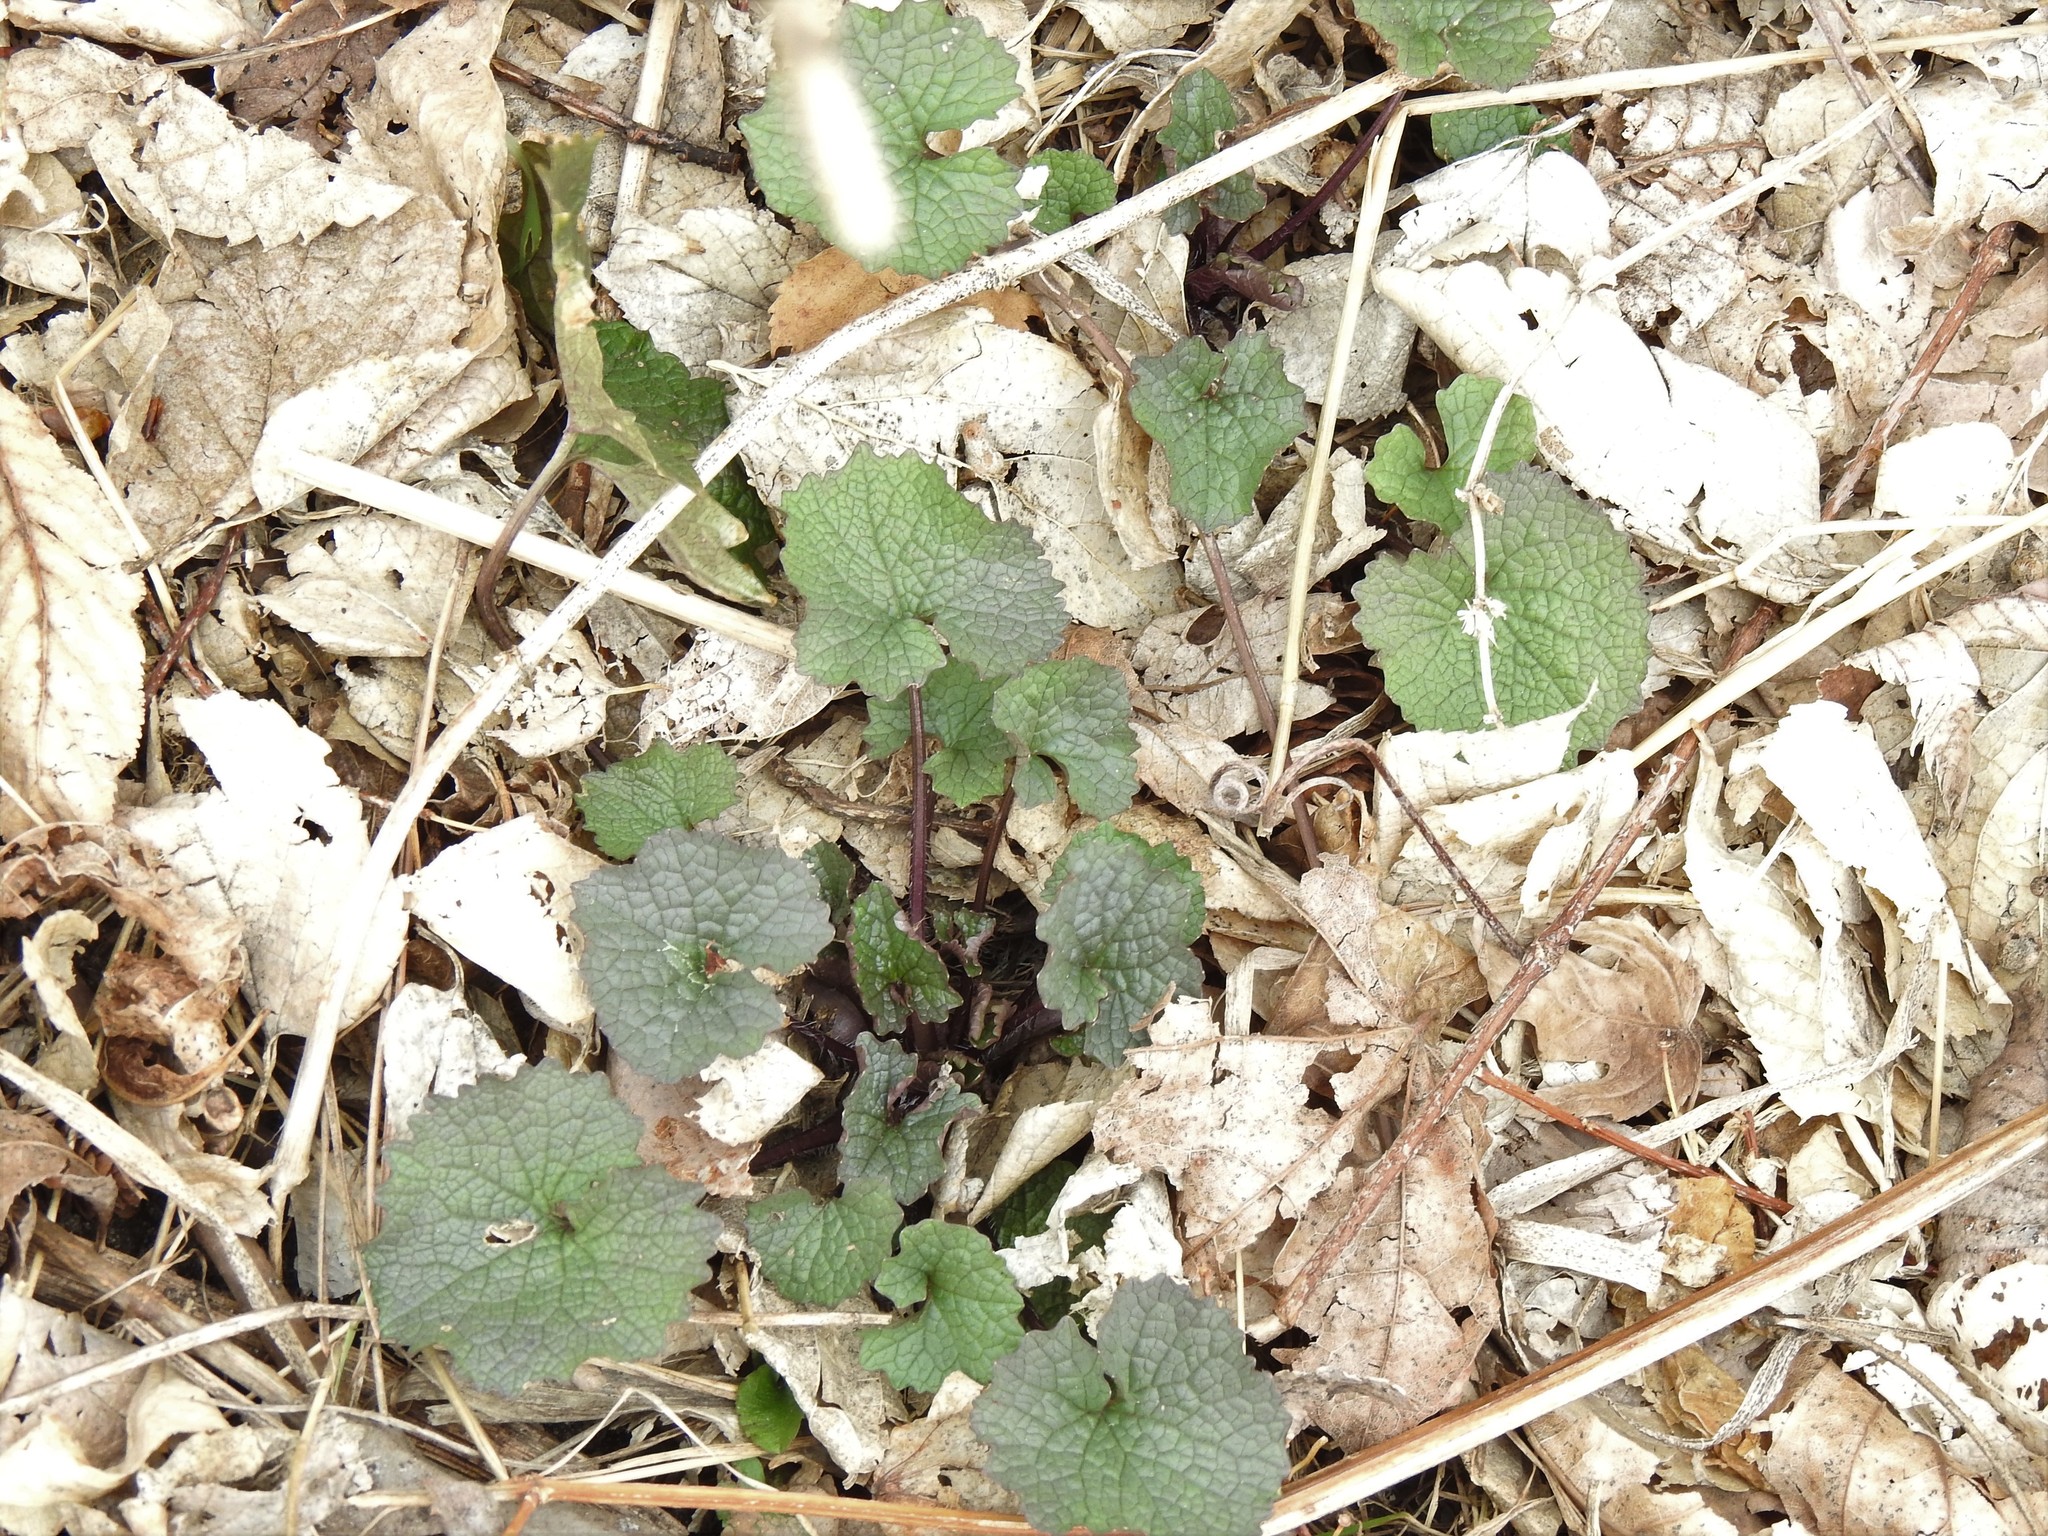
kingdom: Plantae
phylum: Tracheophyta
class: Magnoliopsida
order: Brassicales
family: Brassicaceae
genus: Alliaria
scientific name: Alliaria petiolata
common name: Garlic mustard
